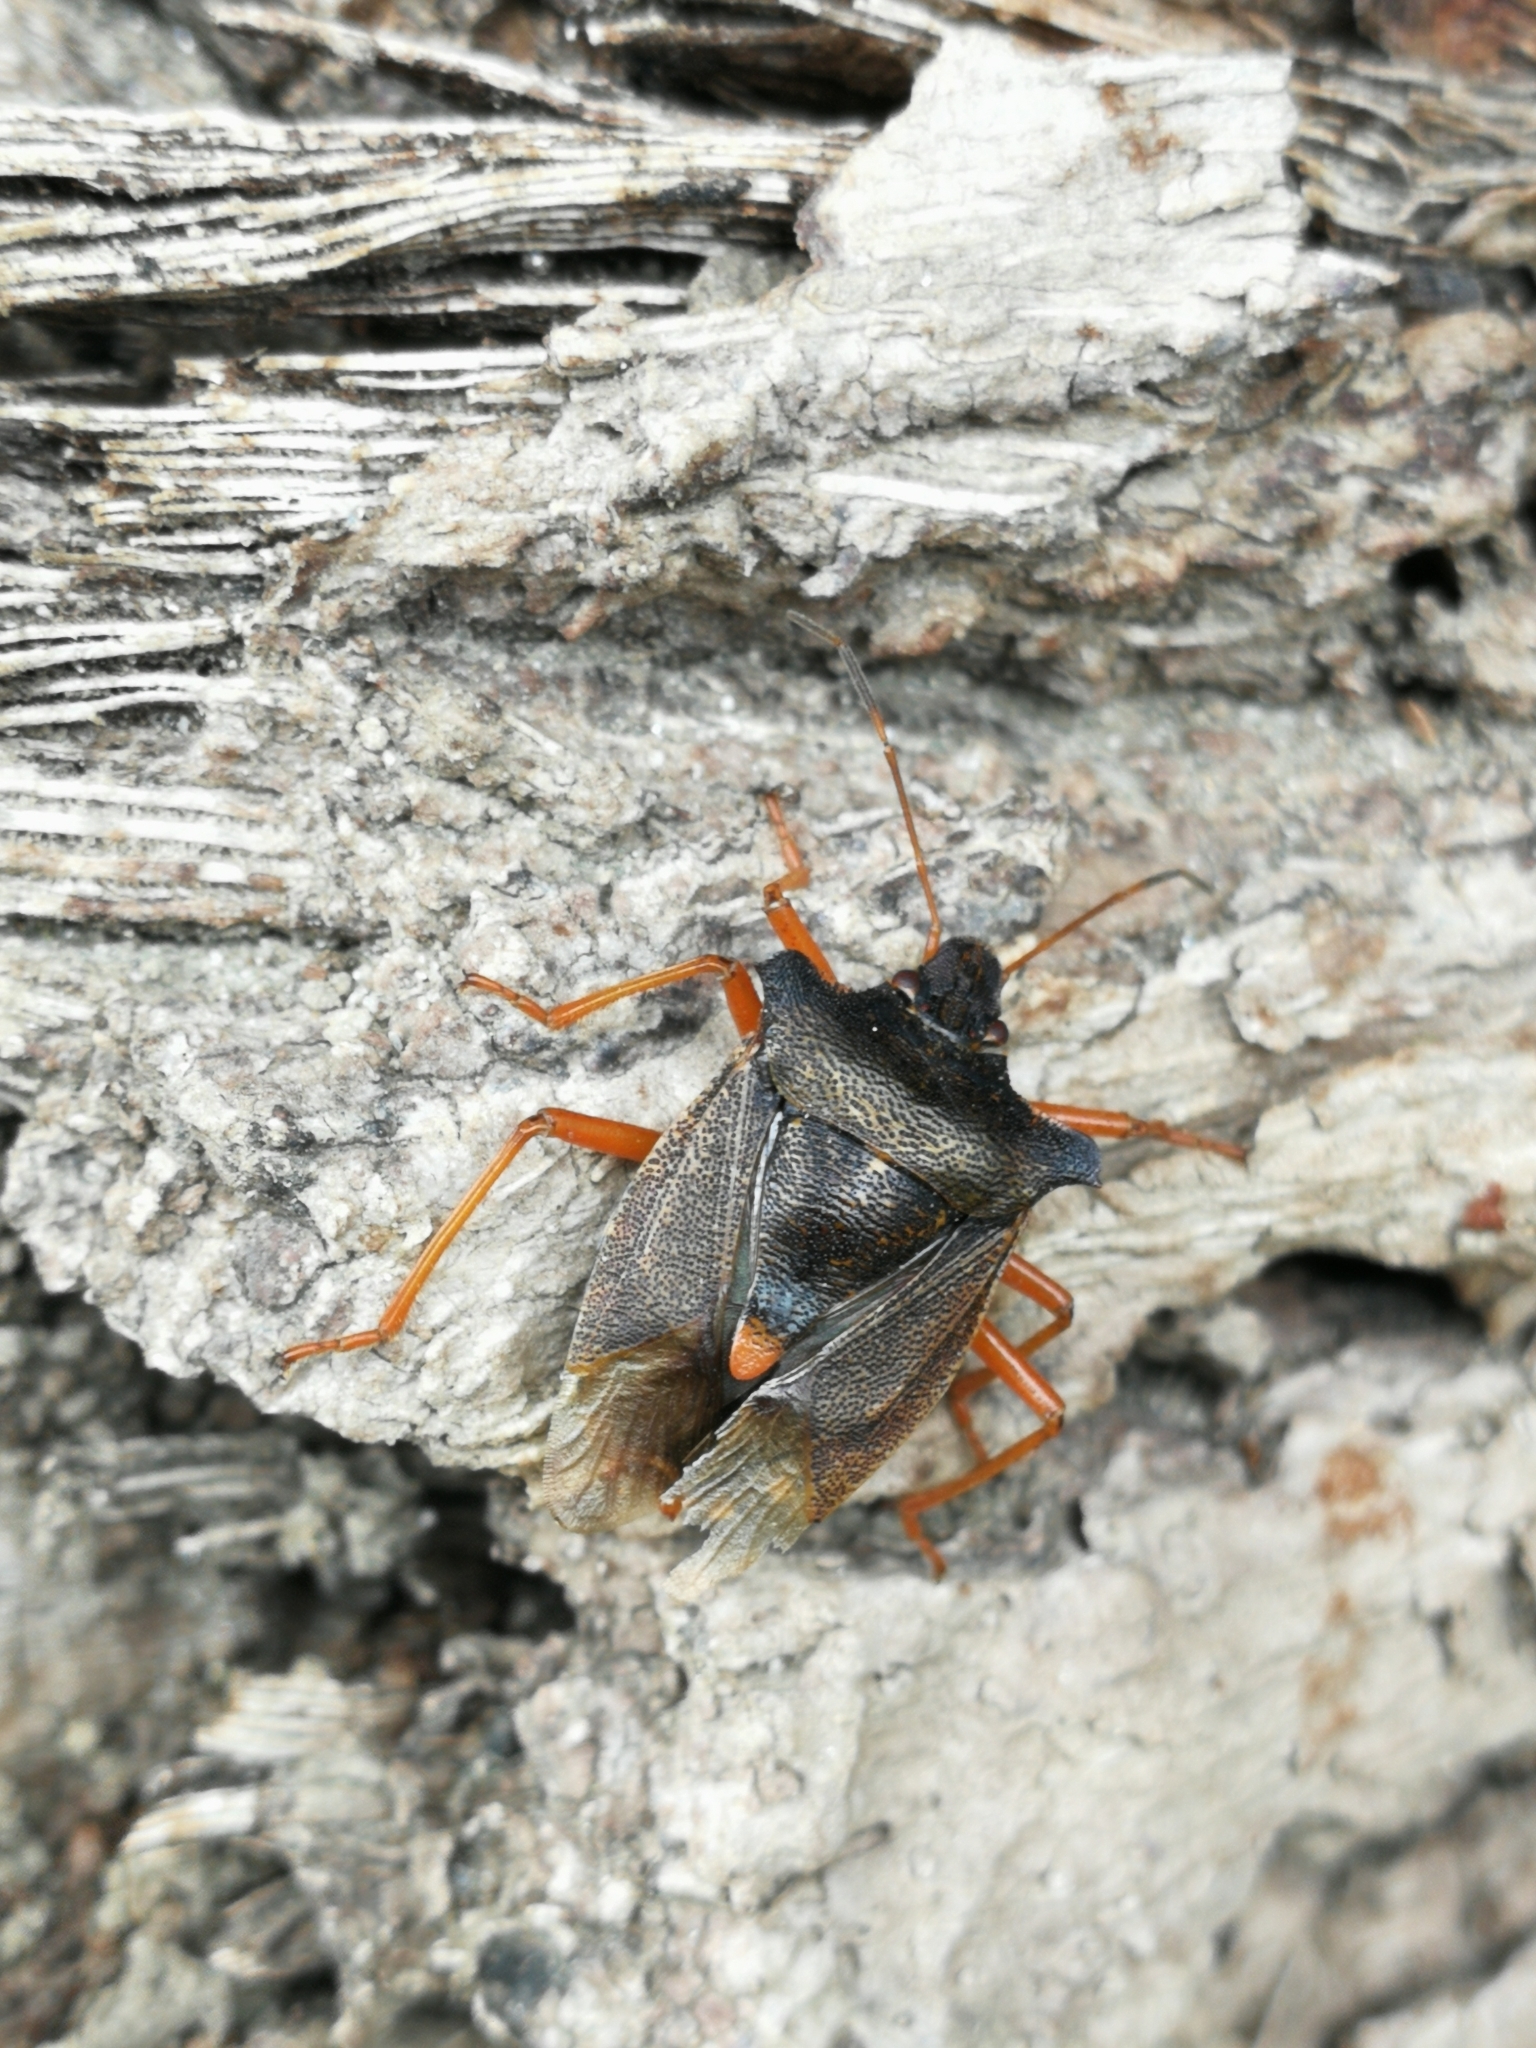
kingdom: Animalia
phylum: Arthropoda
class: Insecta
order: Hemiptera
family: Pentatomidae
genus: Pentatoma
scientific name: Pentatoma rufipes
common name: Forest bug
